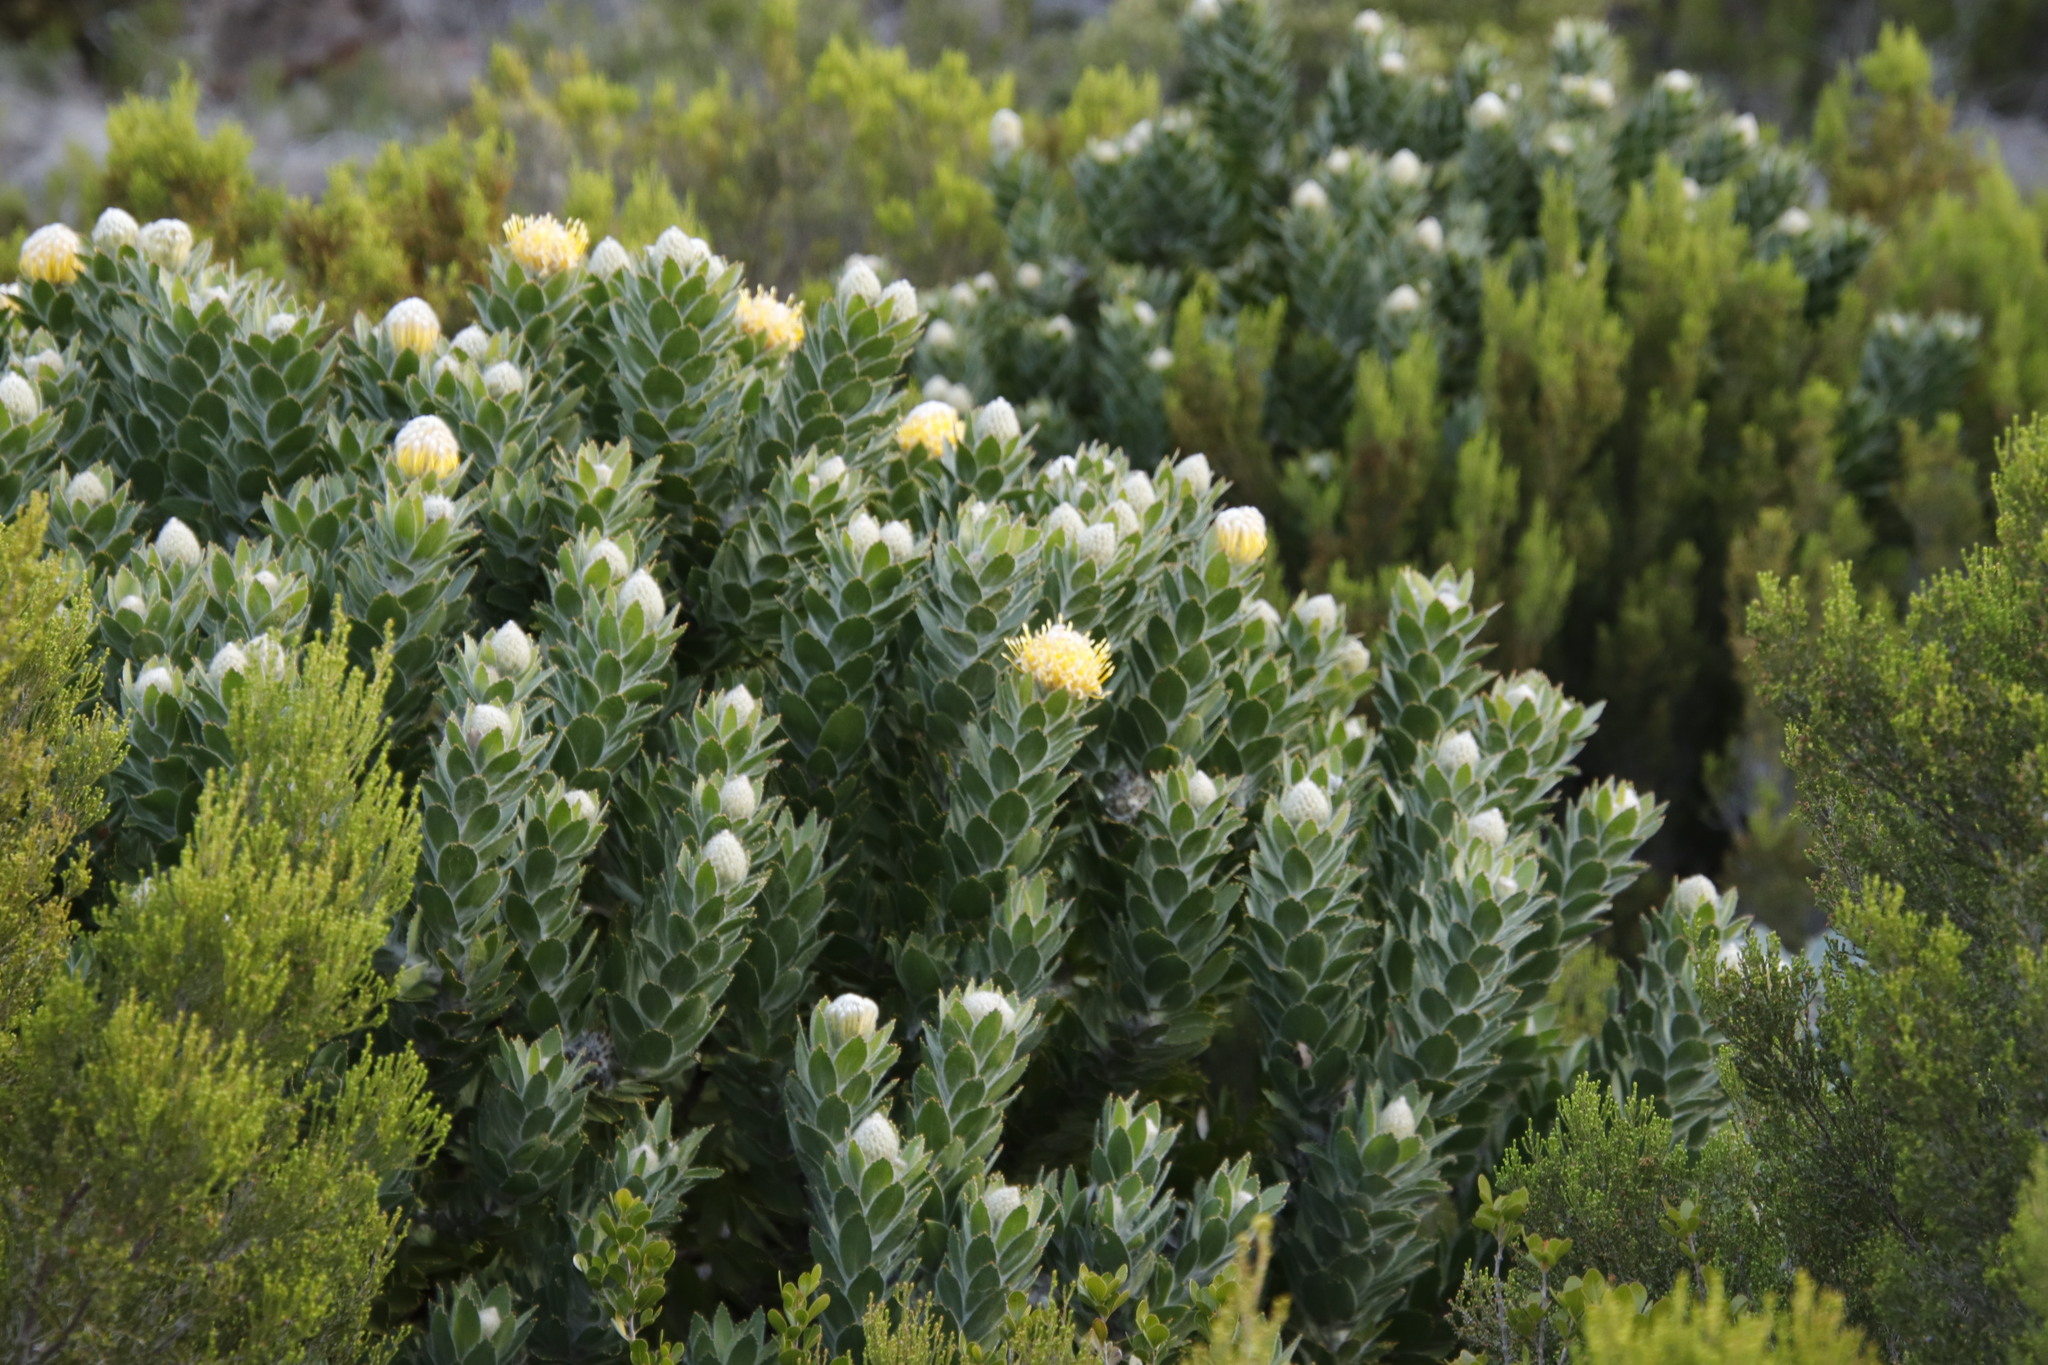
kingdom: Plantae
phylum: Tracheophyta
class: Magnoliopsida
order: Proteales
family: Proteaceae
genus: Leucospermum
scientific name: Leucospermum conocarpodendron
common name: Tree pincushion
